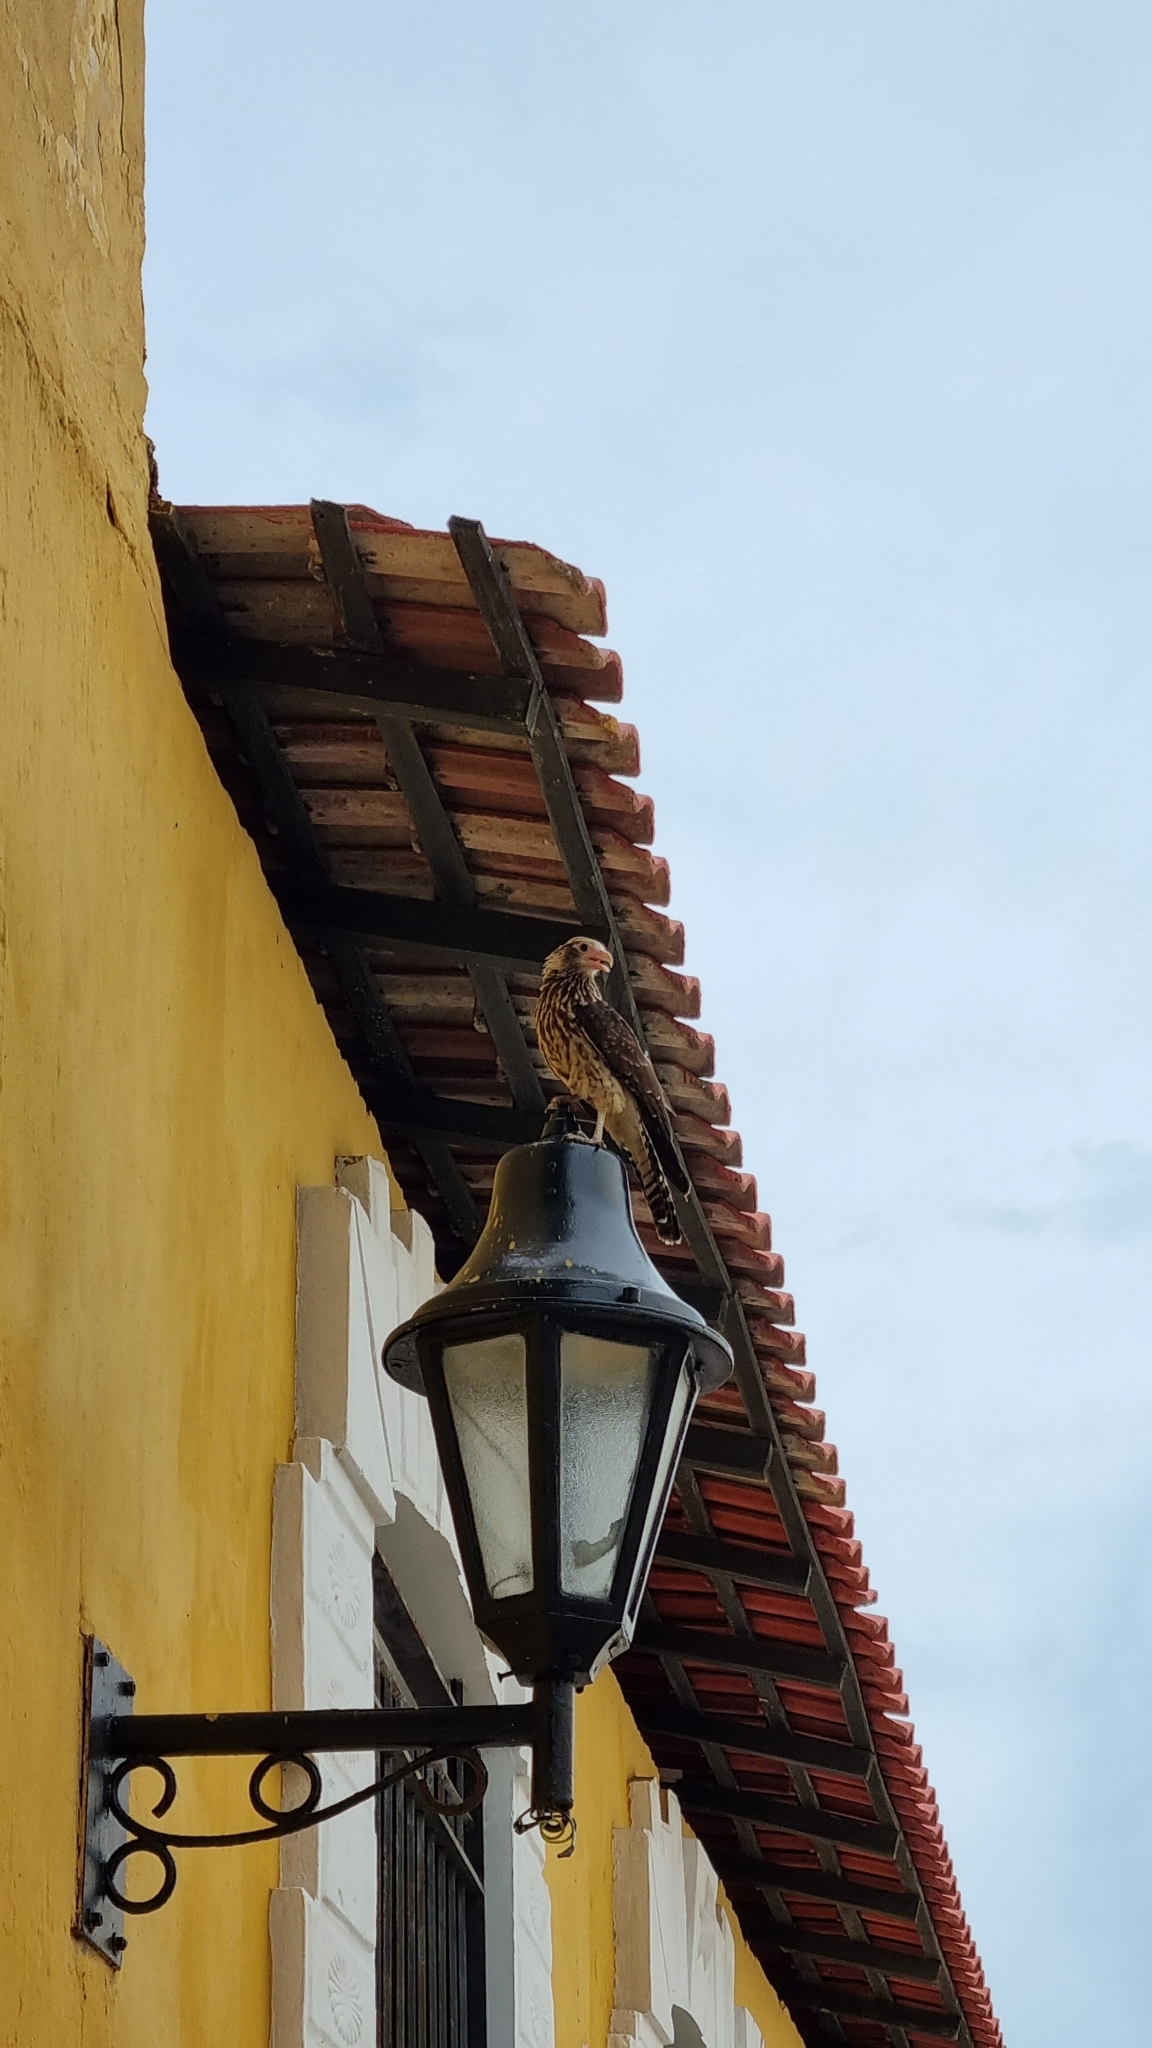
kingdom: Animalia
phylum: Chordata
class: Aves
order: Falconiformes
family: Falconidae
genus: Daptrius
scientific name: Daptrius
